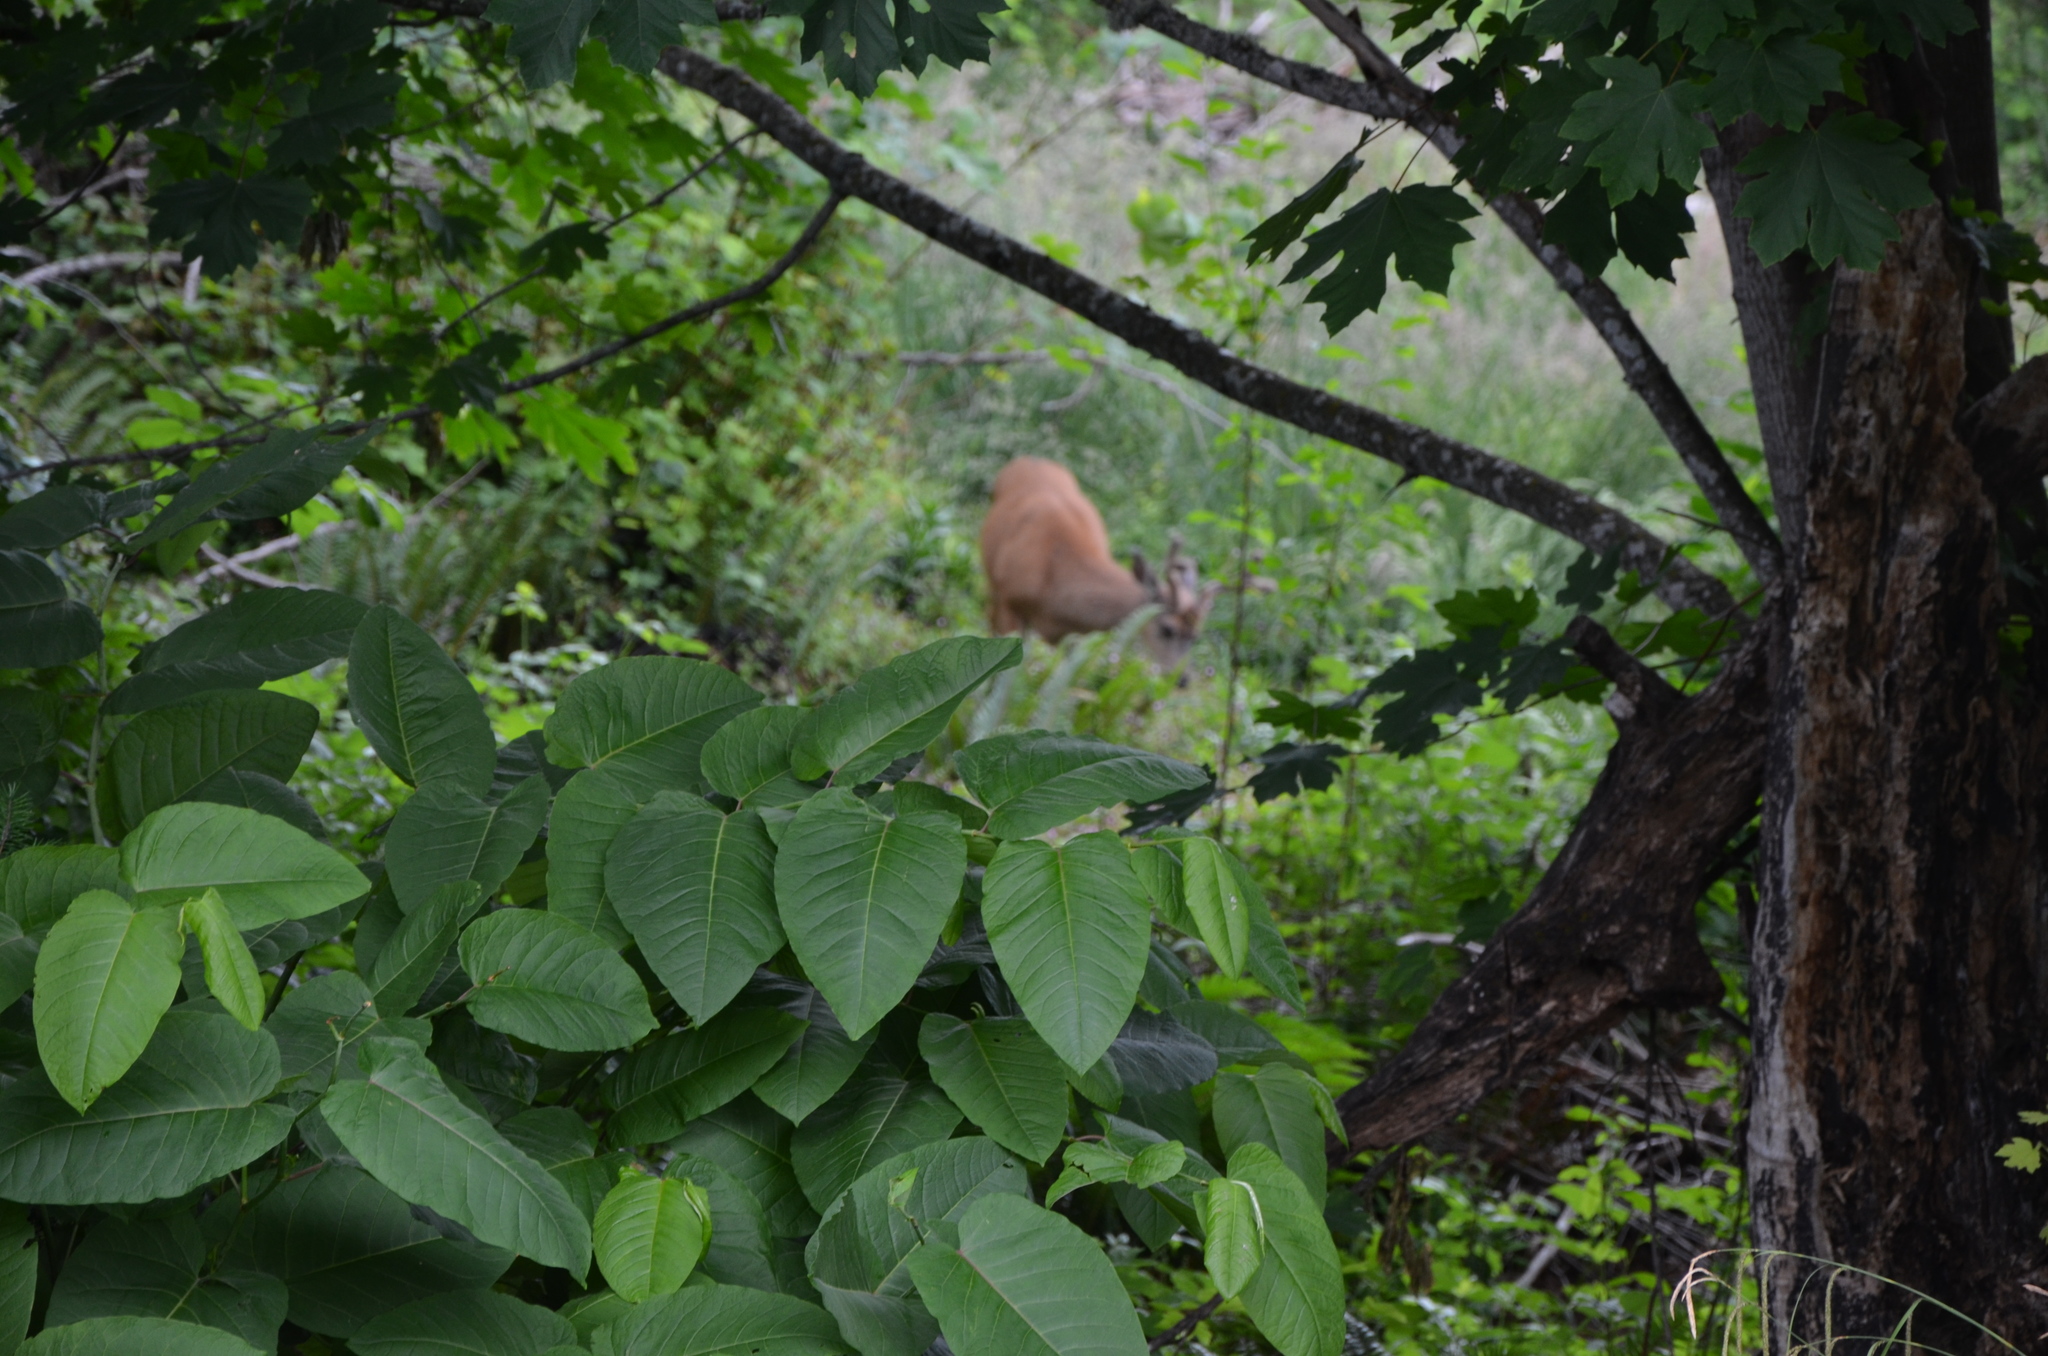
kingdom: Animalia
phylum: Chordata
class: Mammalia
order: Artiodactyla
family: Cervidae
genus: Odocoileus
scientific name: Odocoileus hemionus
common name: Mule deer
